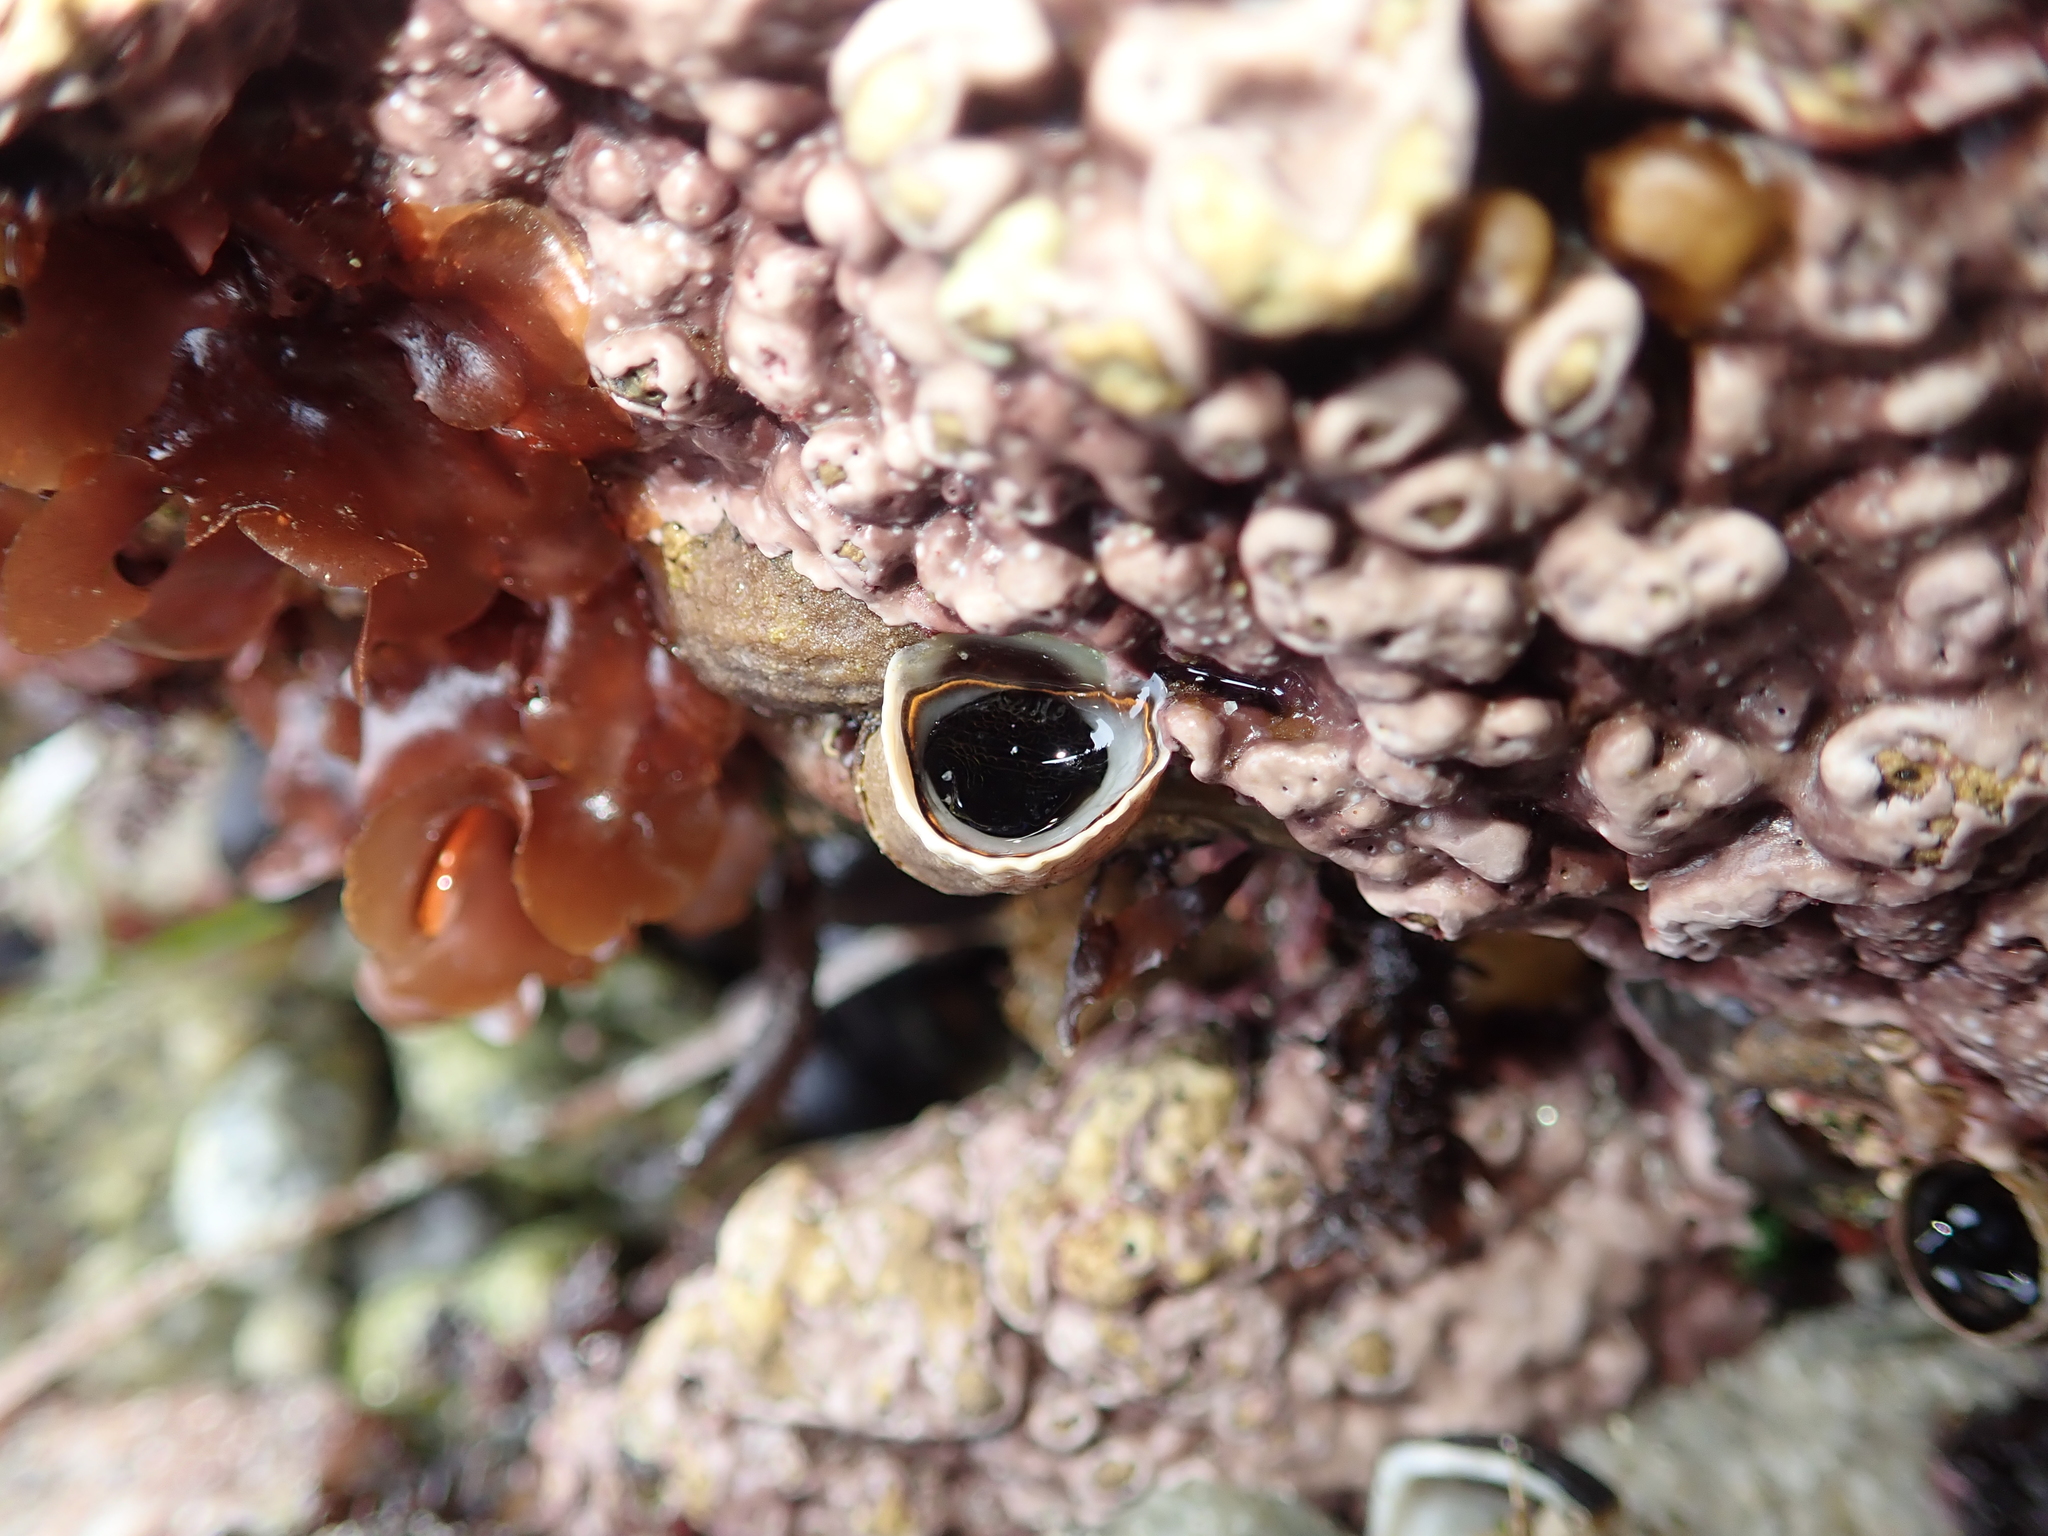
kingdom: Animalia
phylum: Mollusca
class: Gastropoda
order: Littorinimorpha
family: Vermetidae
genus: Thylacodes
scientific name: Thylacodes squamigerus
